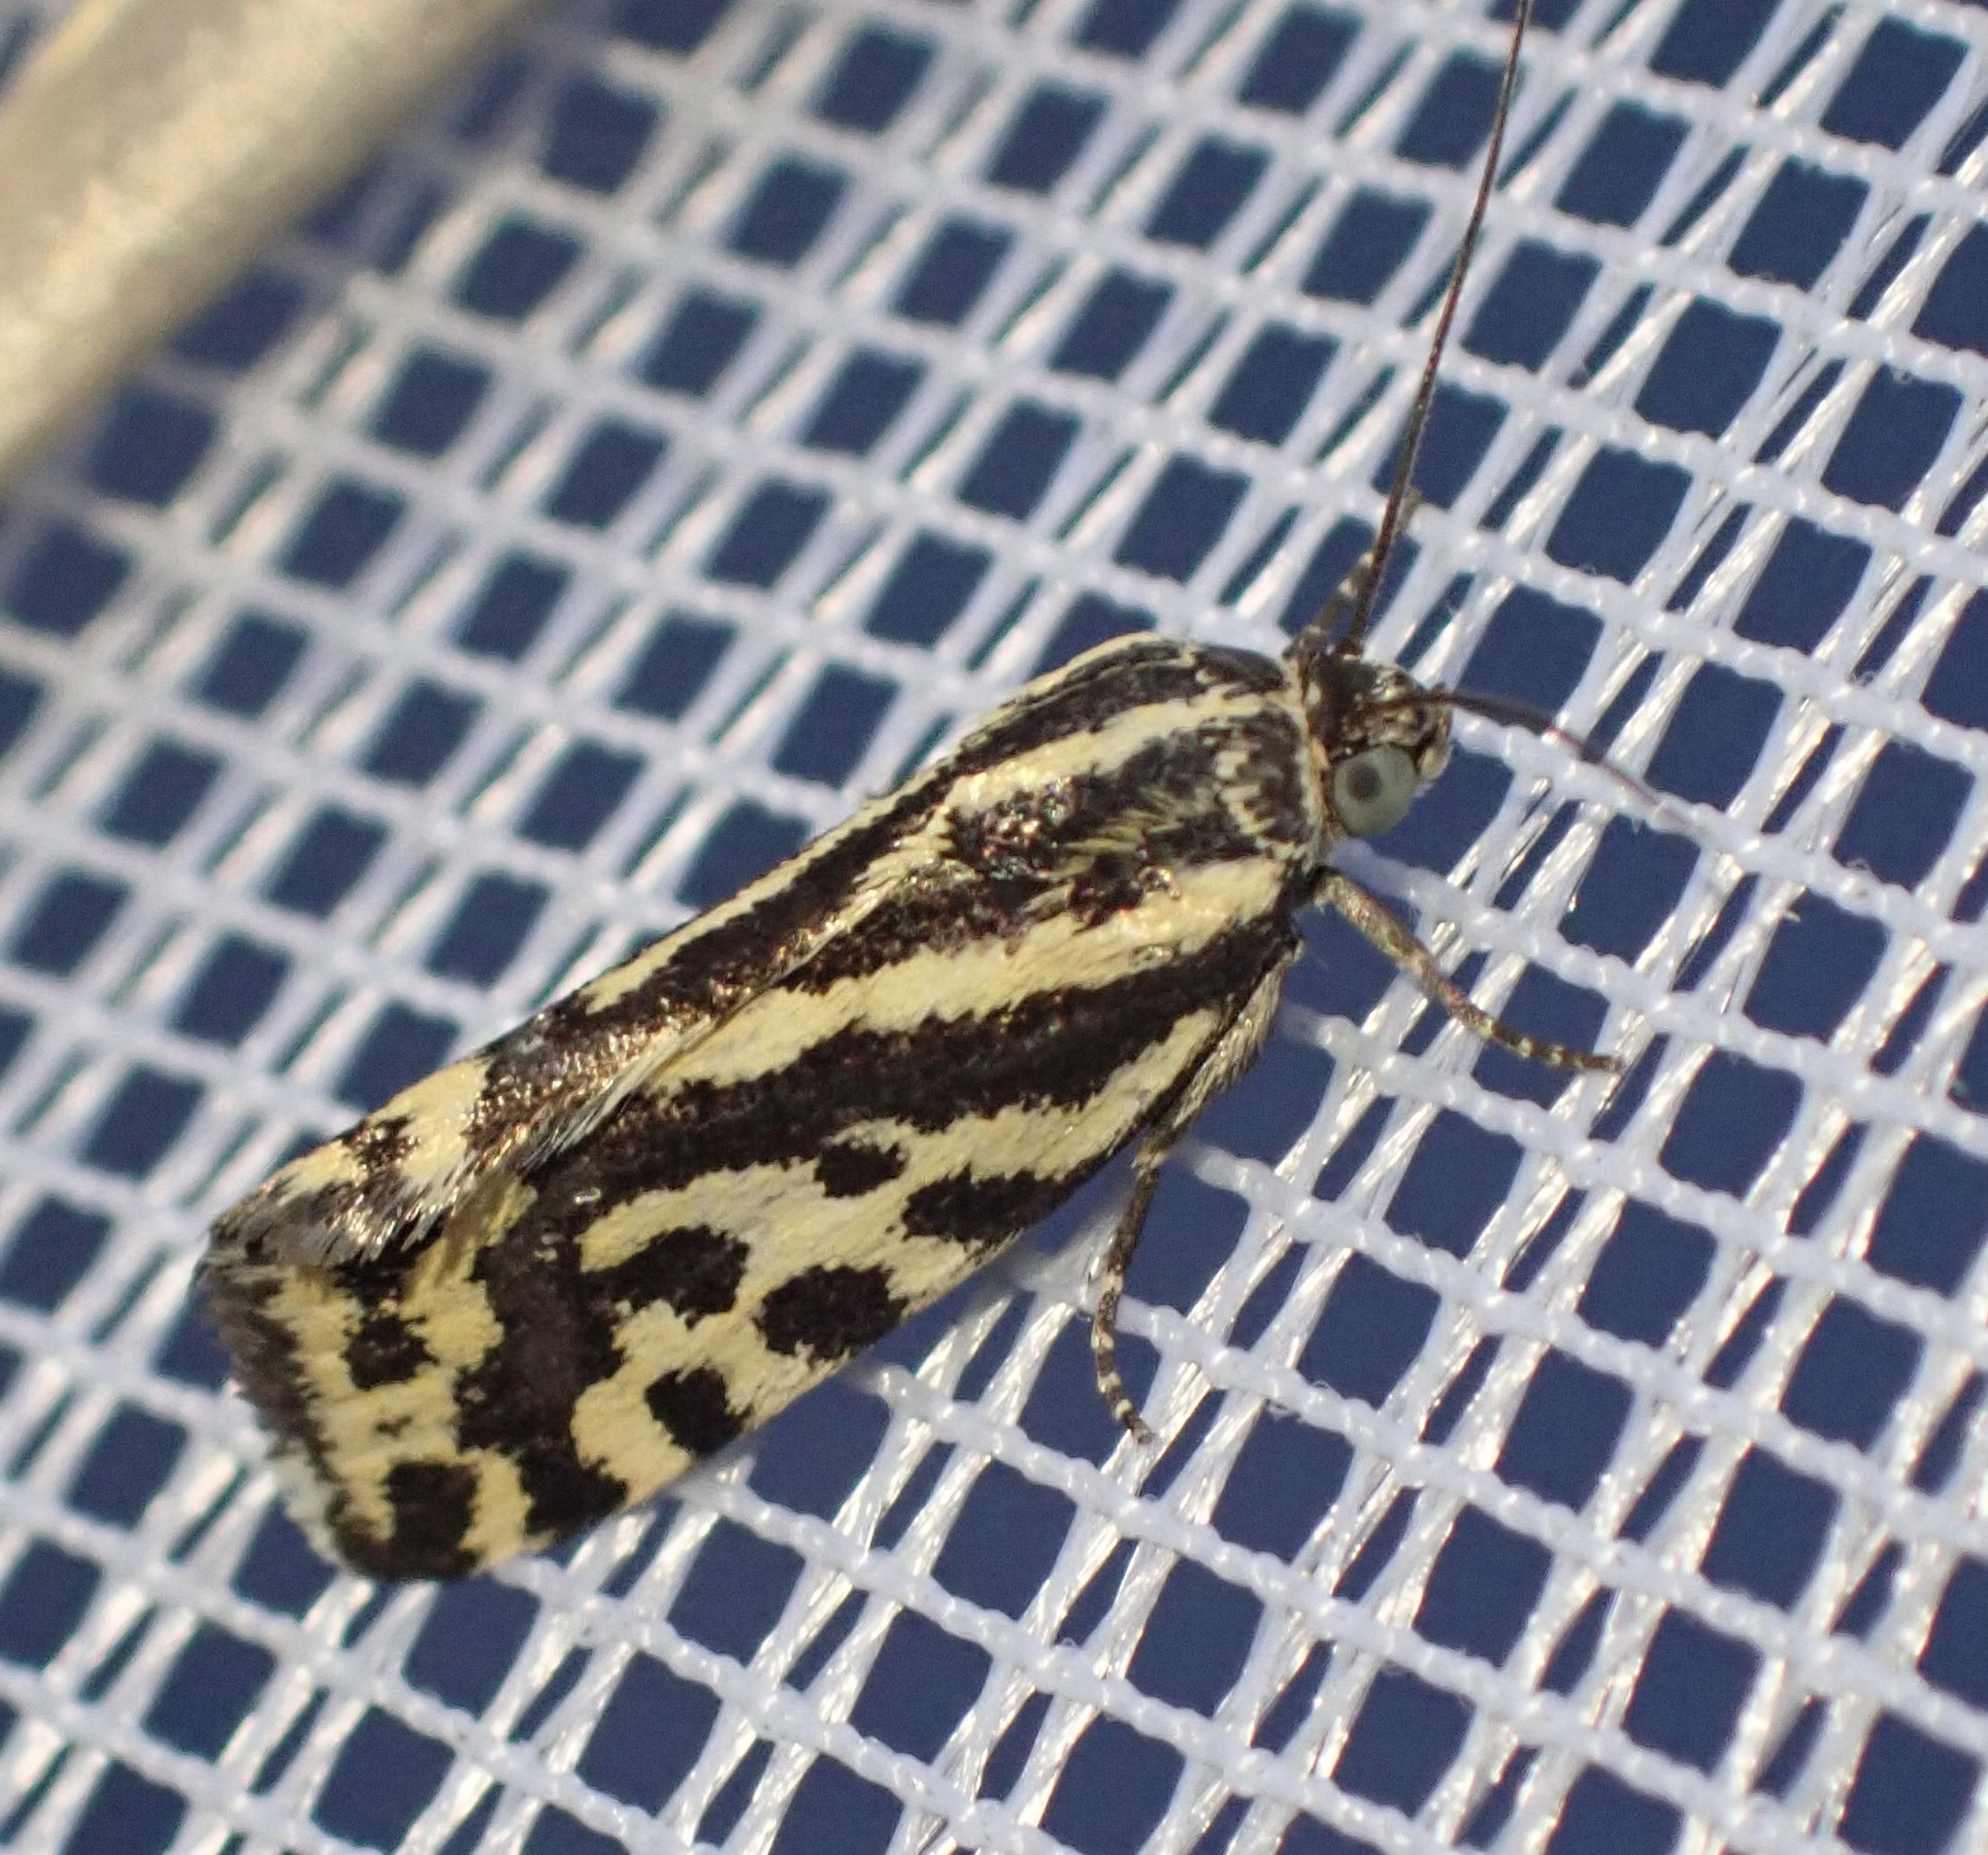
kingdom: Animalia
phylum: Arthropoda
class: Insecta
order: Lepidoptera
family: Noctuidae
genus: Acontia
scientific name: Acontia trabealis
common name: Spotted sulphur
